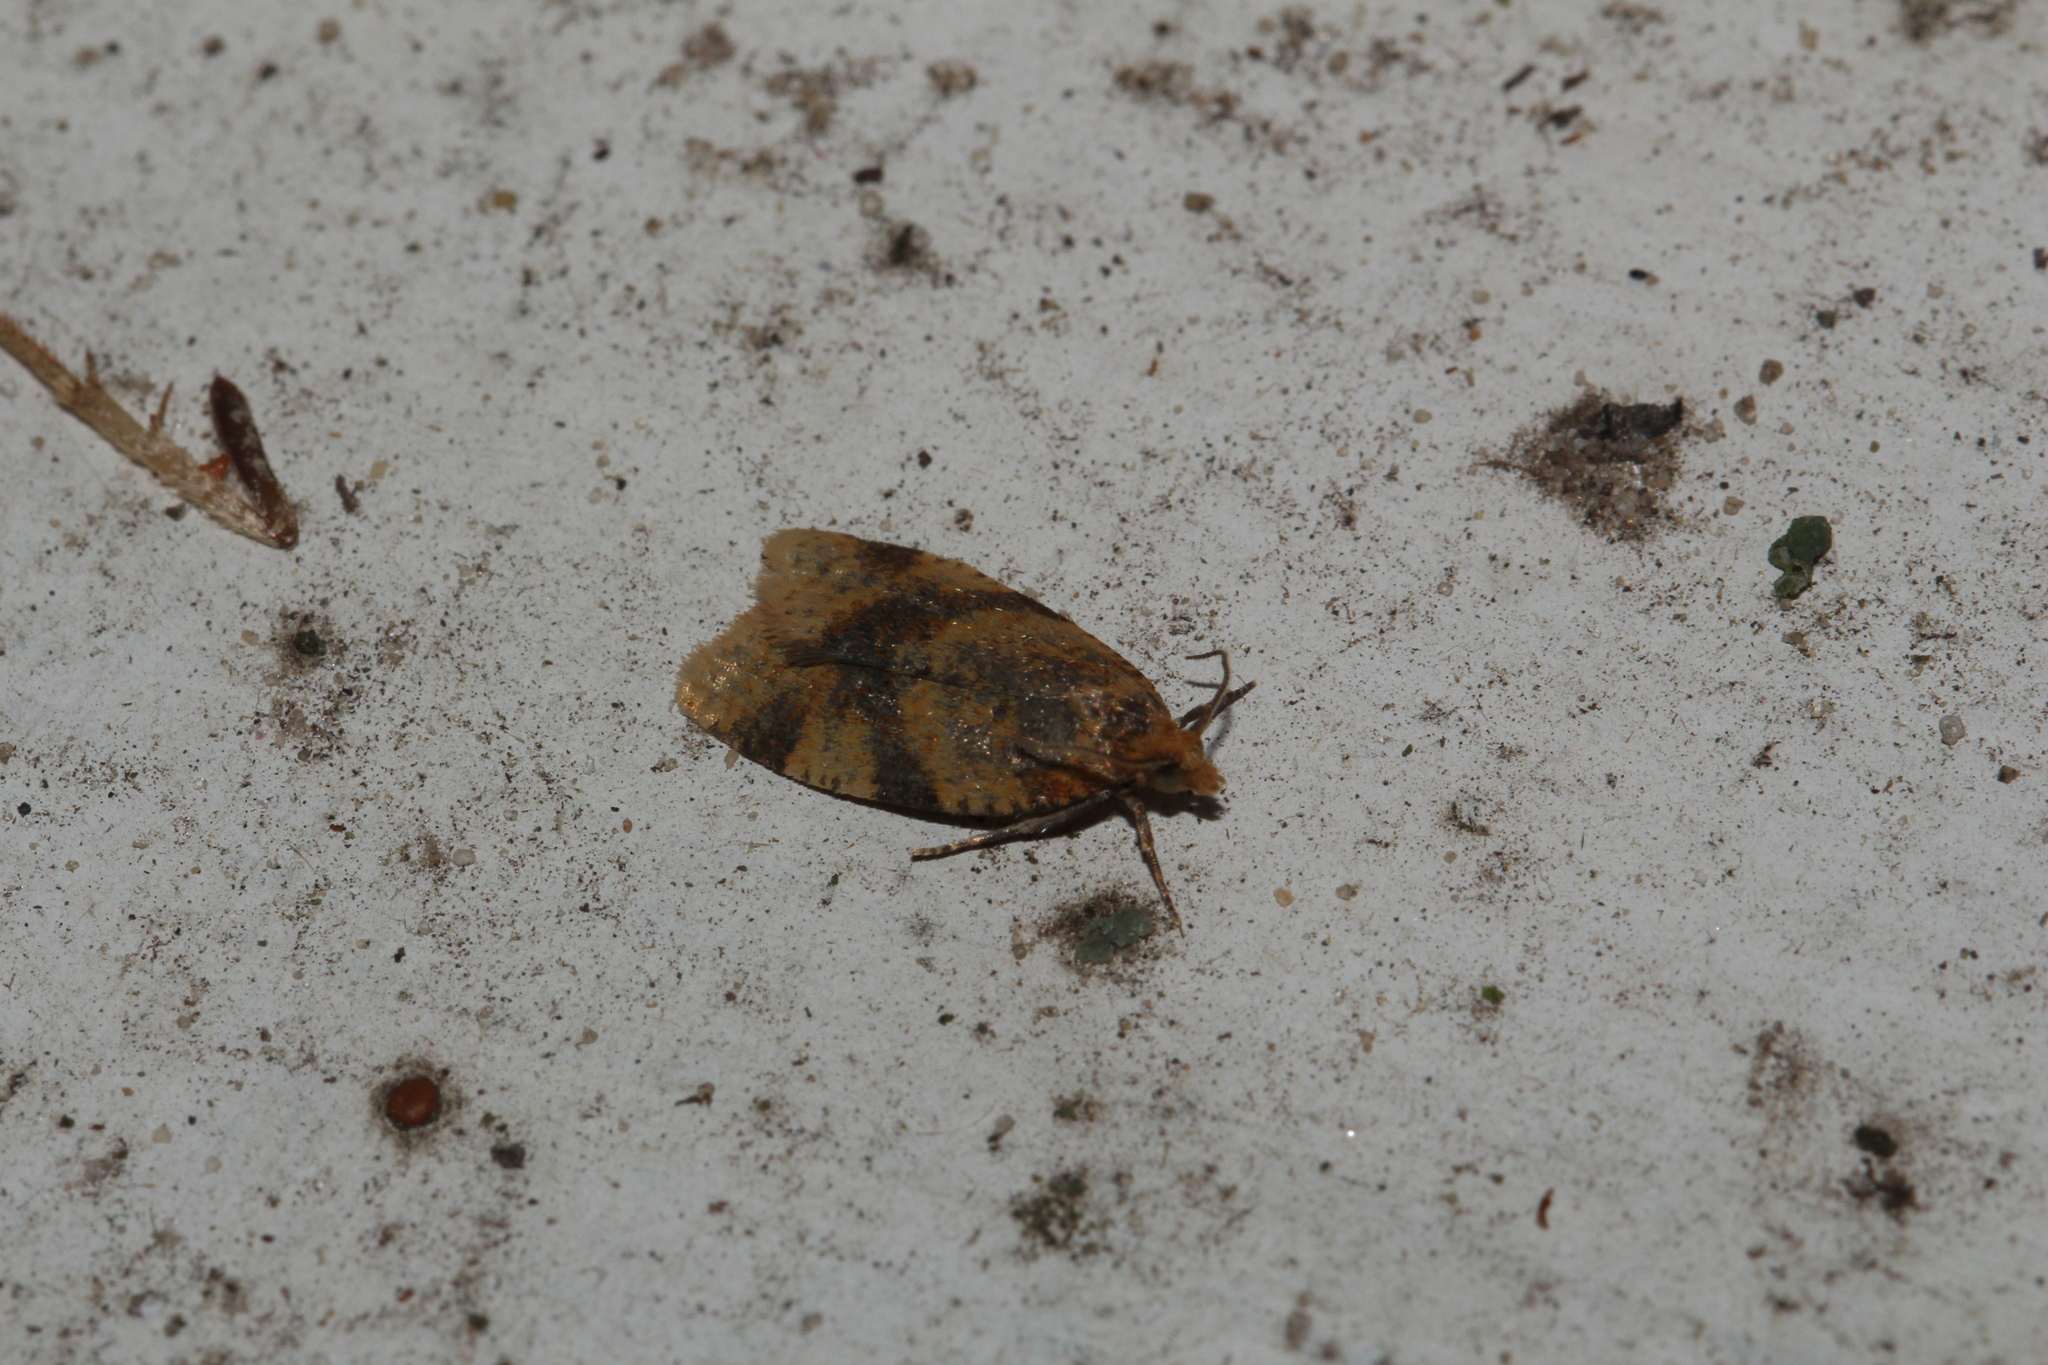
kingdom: Animalia
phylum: Arthropoda
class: Insecta
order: Lepidoptera
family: Tortricidae
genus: Epagoge
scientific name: Epagoge grotiana
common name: Brown-barred twist
